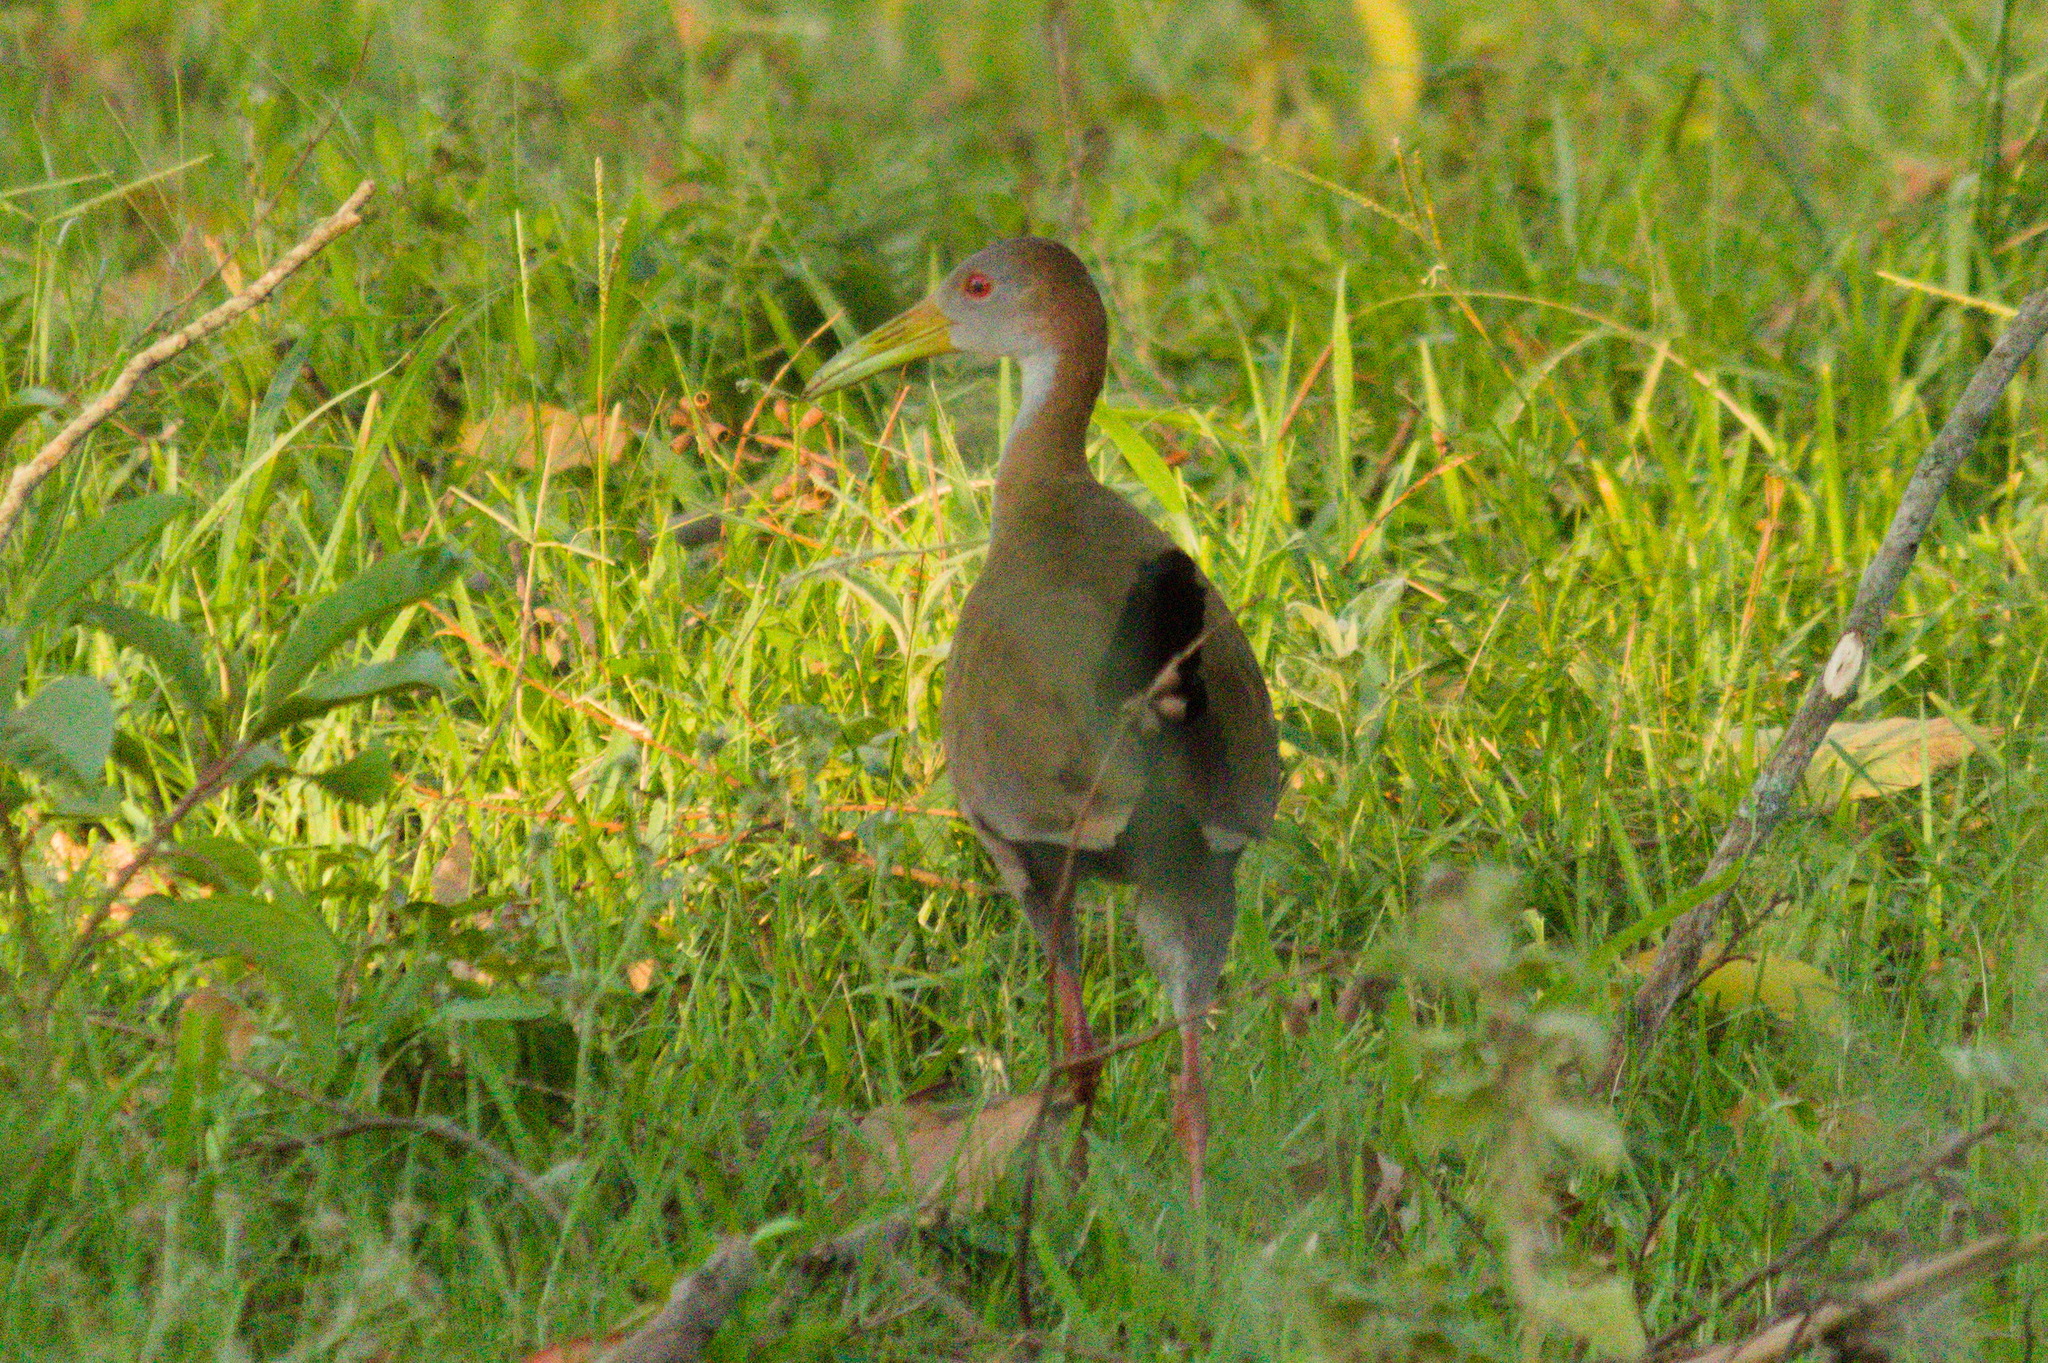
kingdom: Animalia
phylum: Chordata
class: Aves
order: Gruiformes
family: Rallidae
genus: Aramides
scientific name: Aramides ypecaha
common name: Giant wood rail
